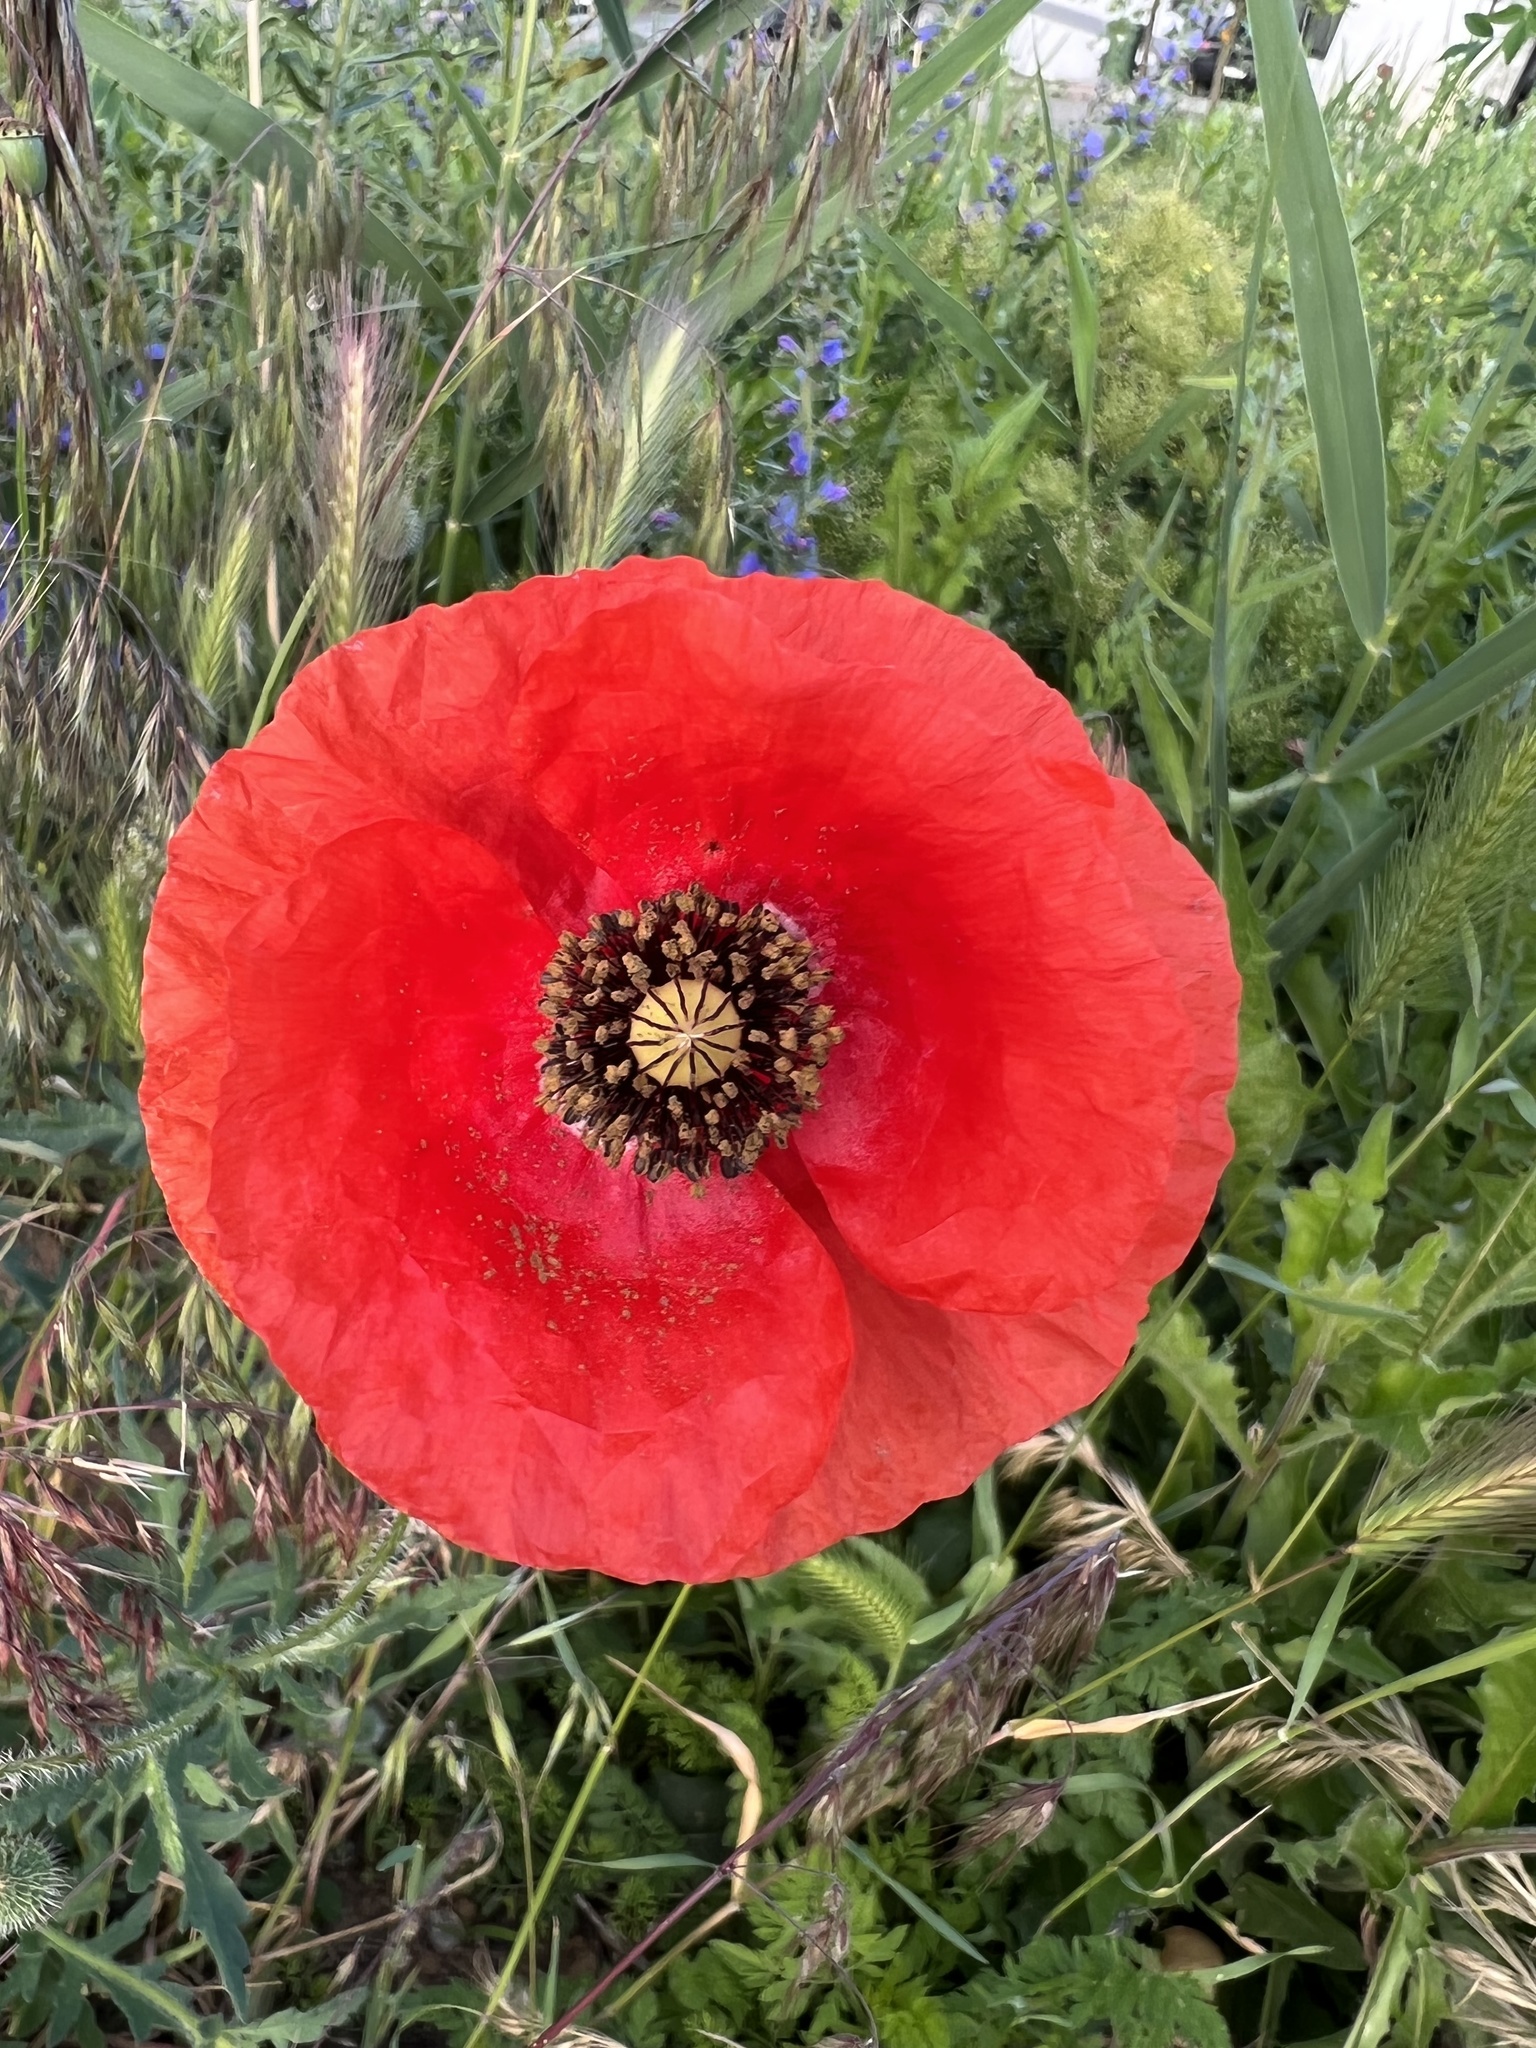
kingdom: Plantae
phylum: Tracheophyta
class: Magnoliopsida
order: Ranunculales
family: Papaveraceae
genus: Papaver
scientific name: Papaver rhoeas
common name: Corn poppy
